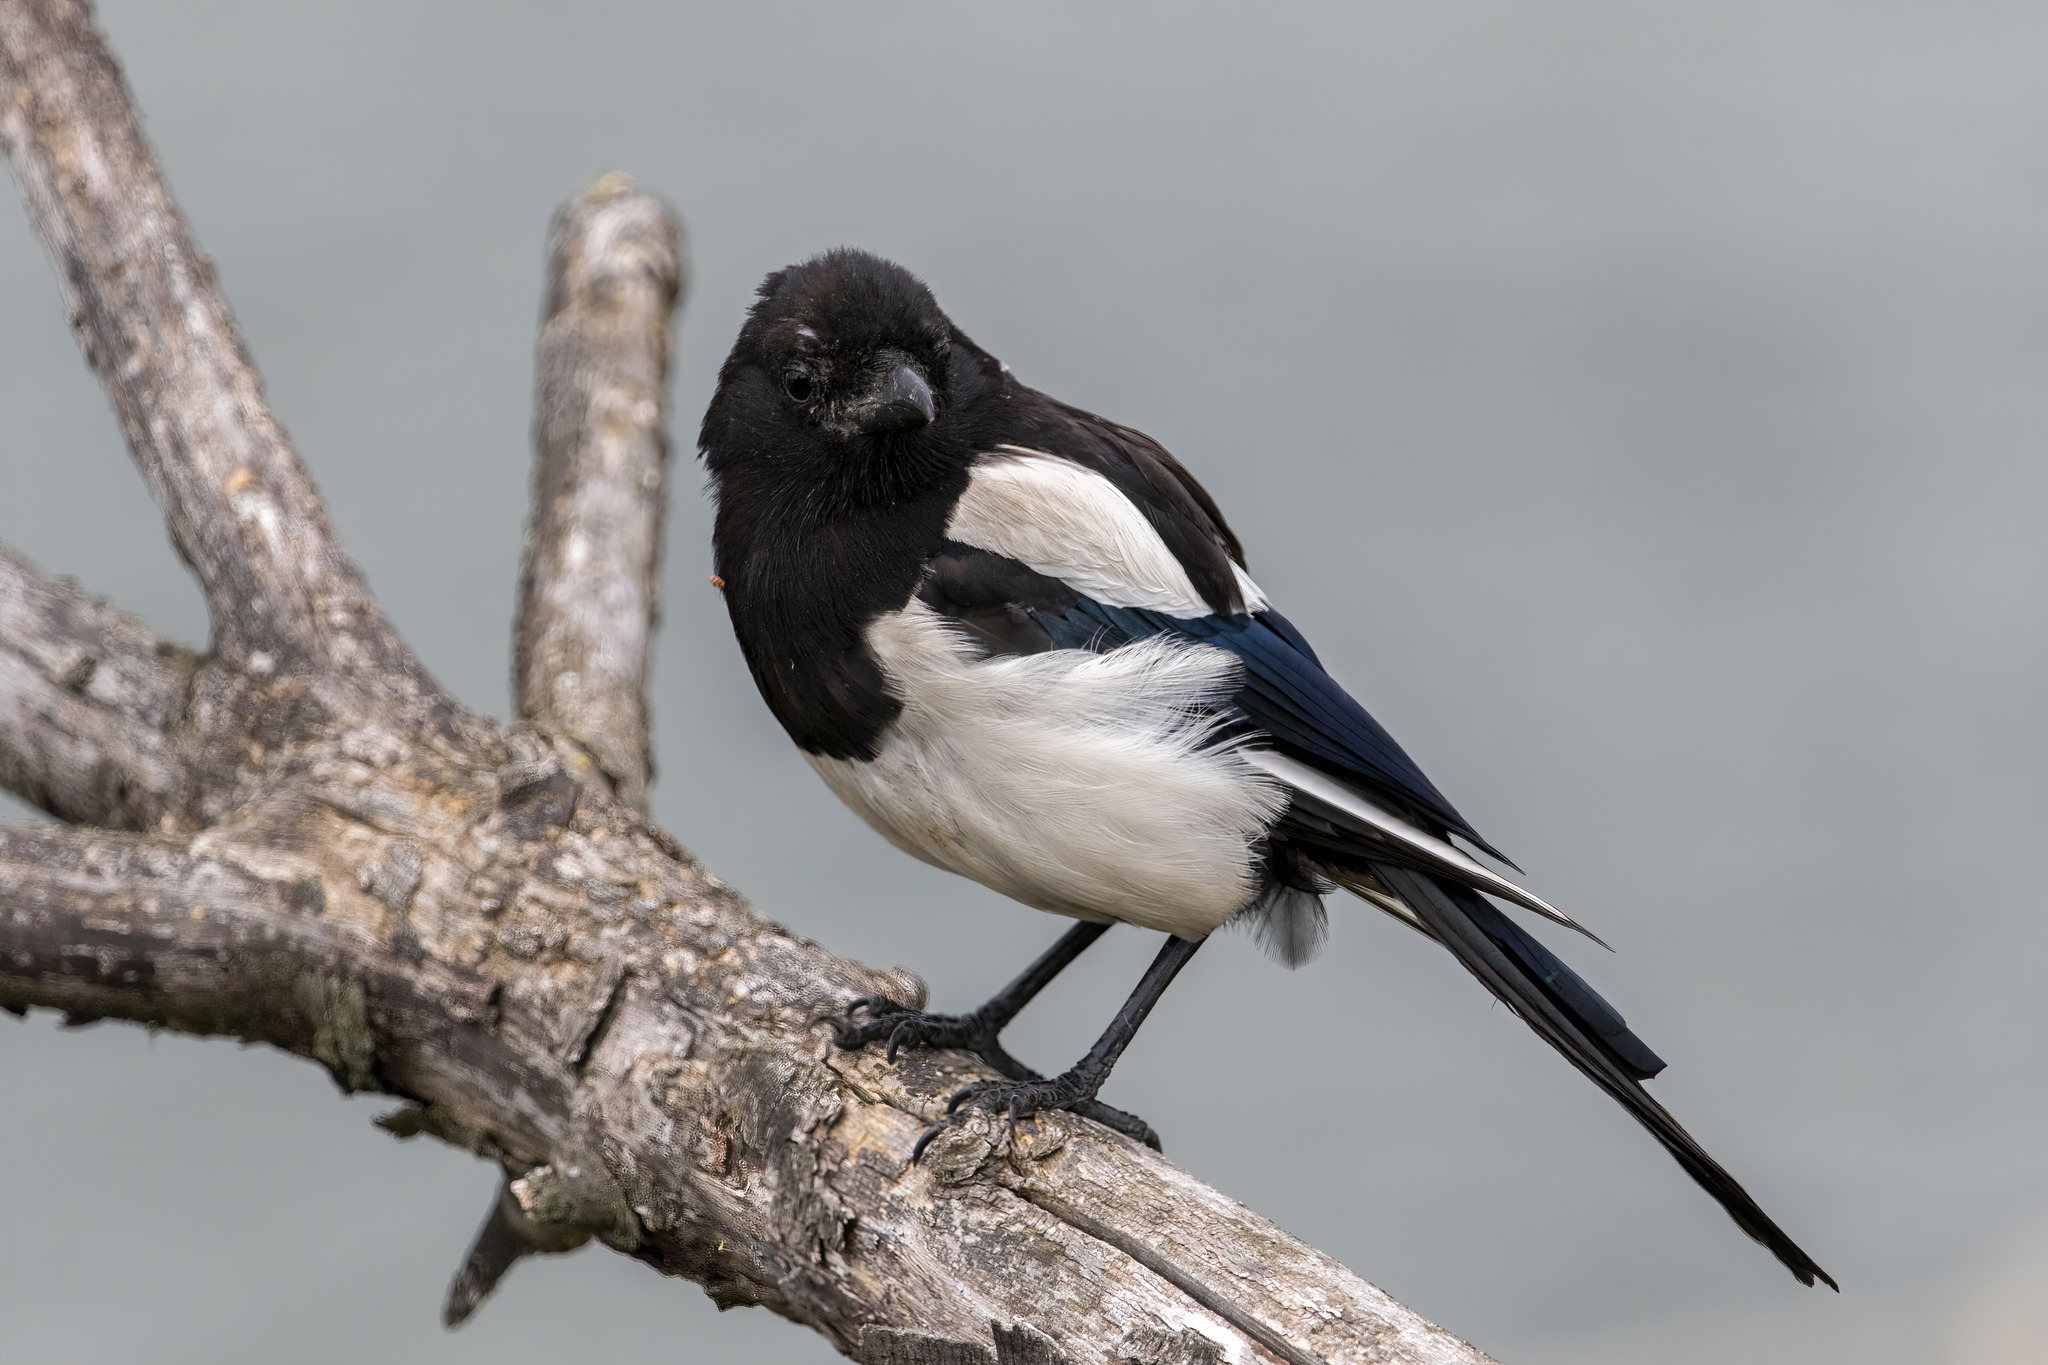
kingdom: Animalia
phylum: Chordata
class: Aves
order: Passeriformes
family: Corvidae
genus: Pica
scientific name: Pica pica
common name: Eurasian magpie
